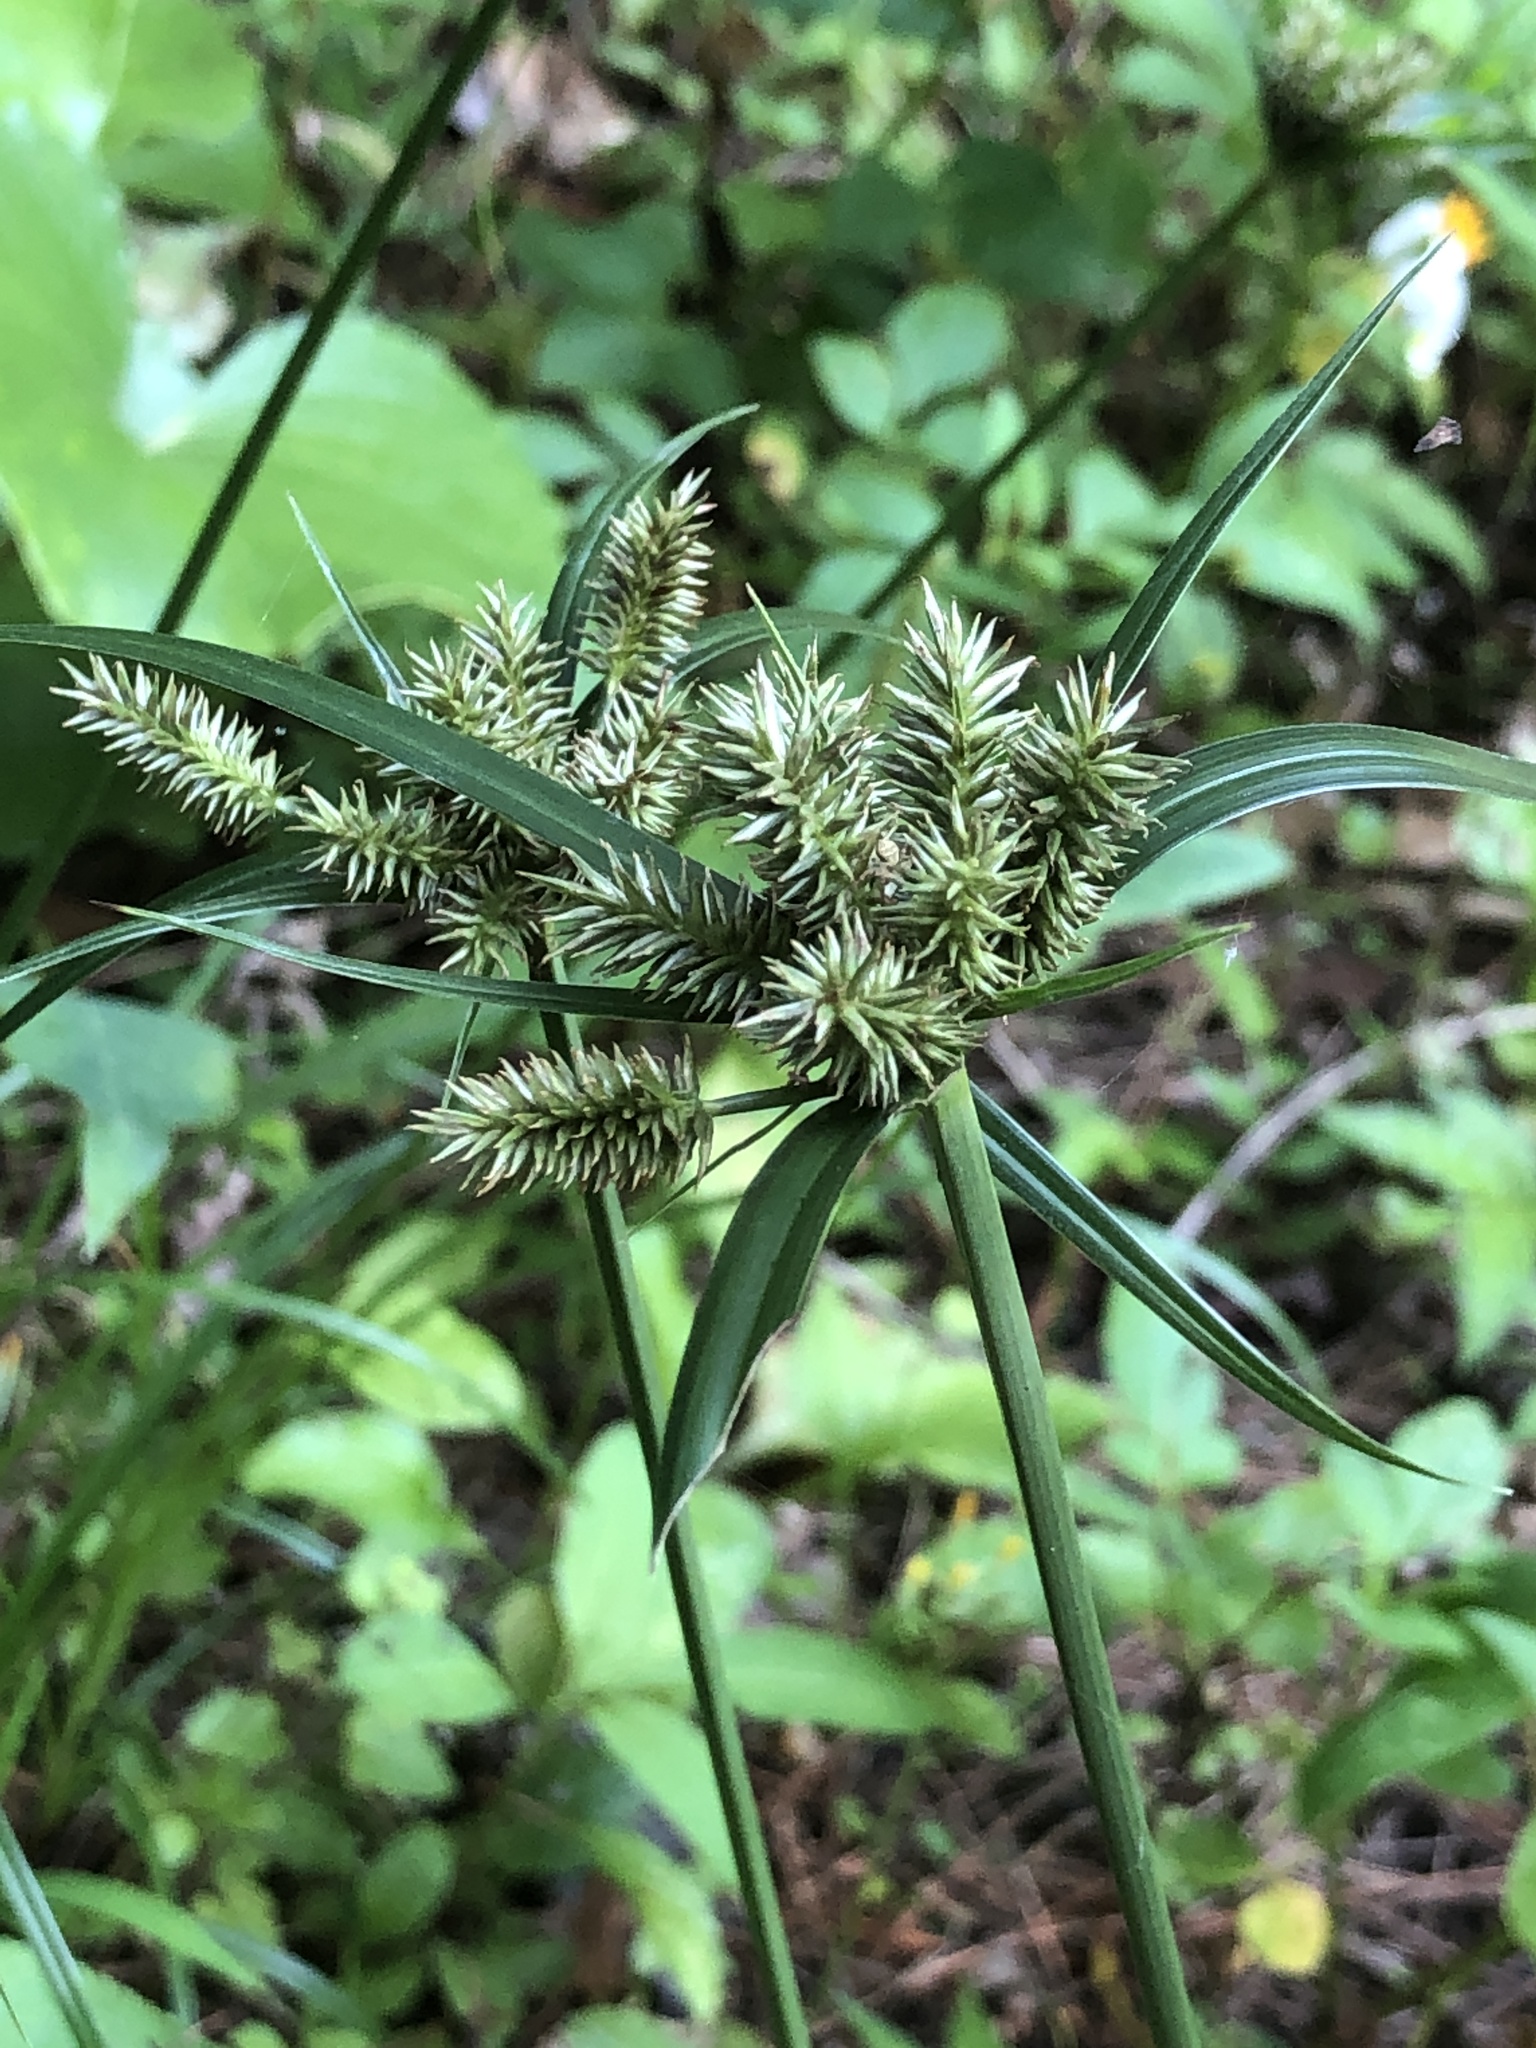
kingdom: Plantae
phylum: Tracheophyta
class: Liliopsida
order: Poales
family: Cyperaceae
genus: Cyperus
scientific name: Cyperus cyperoides
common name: Pacific island flat sedge
